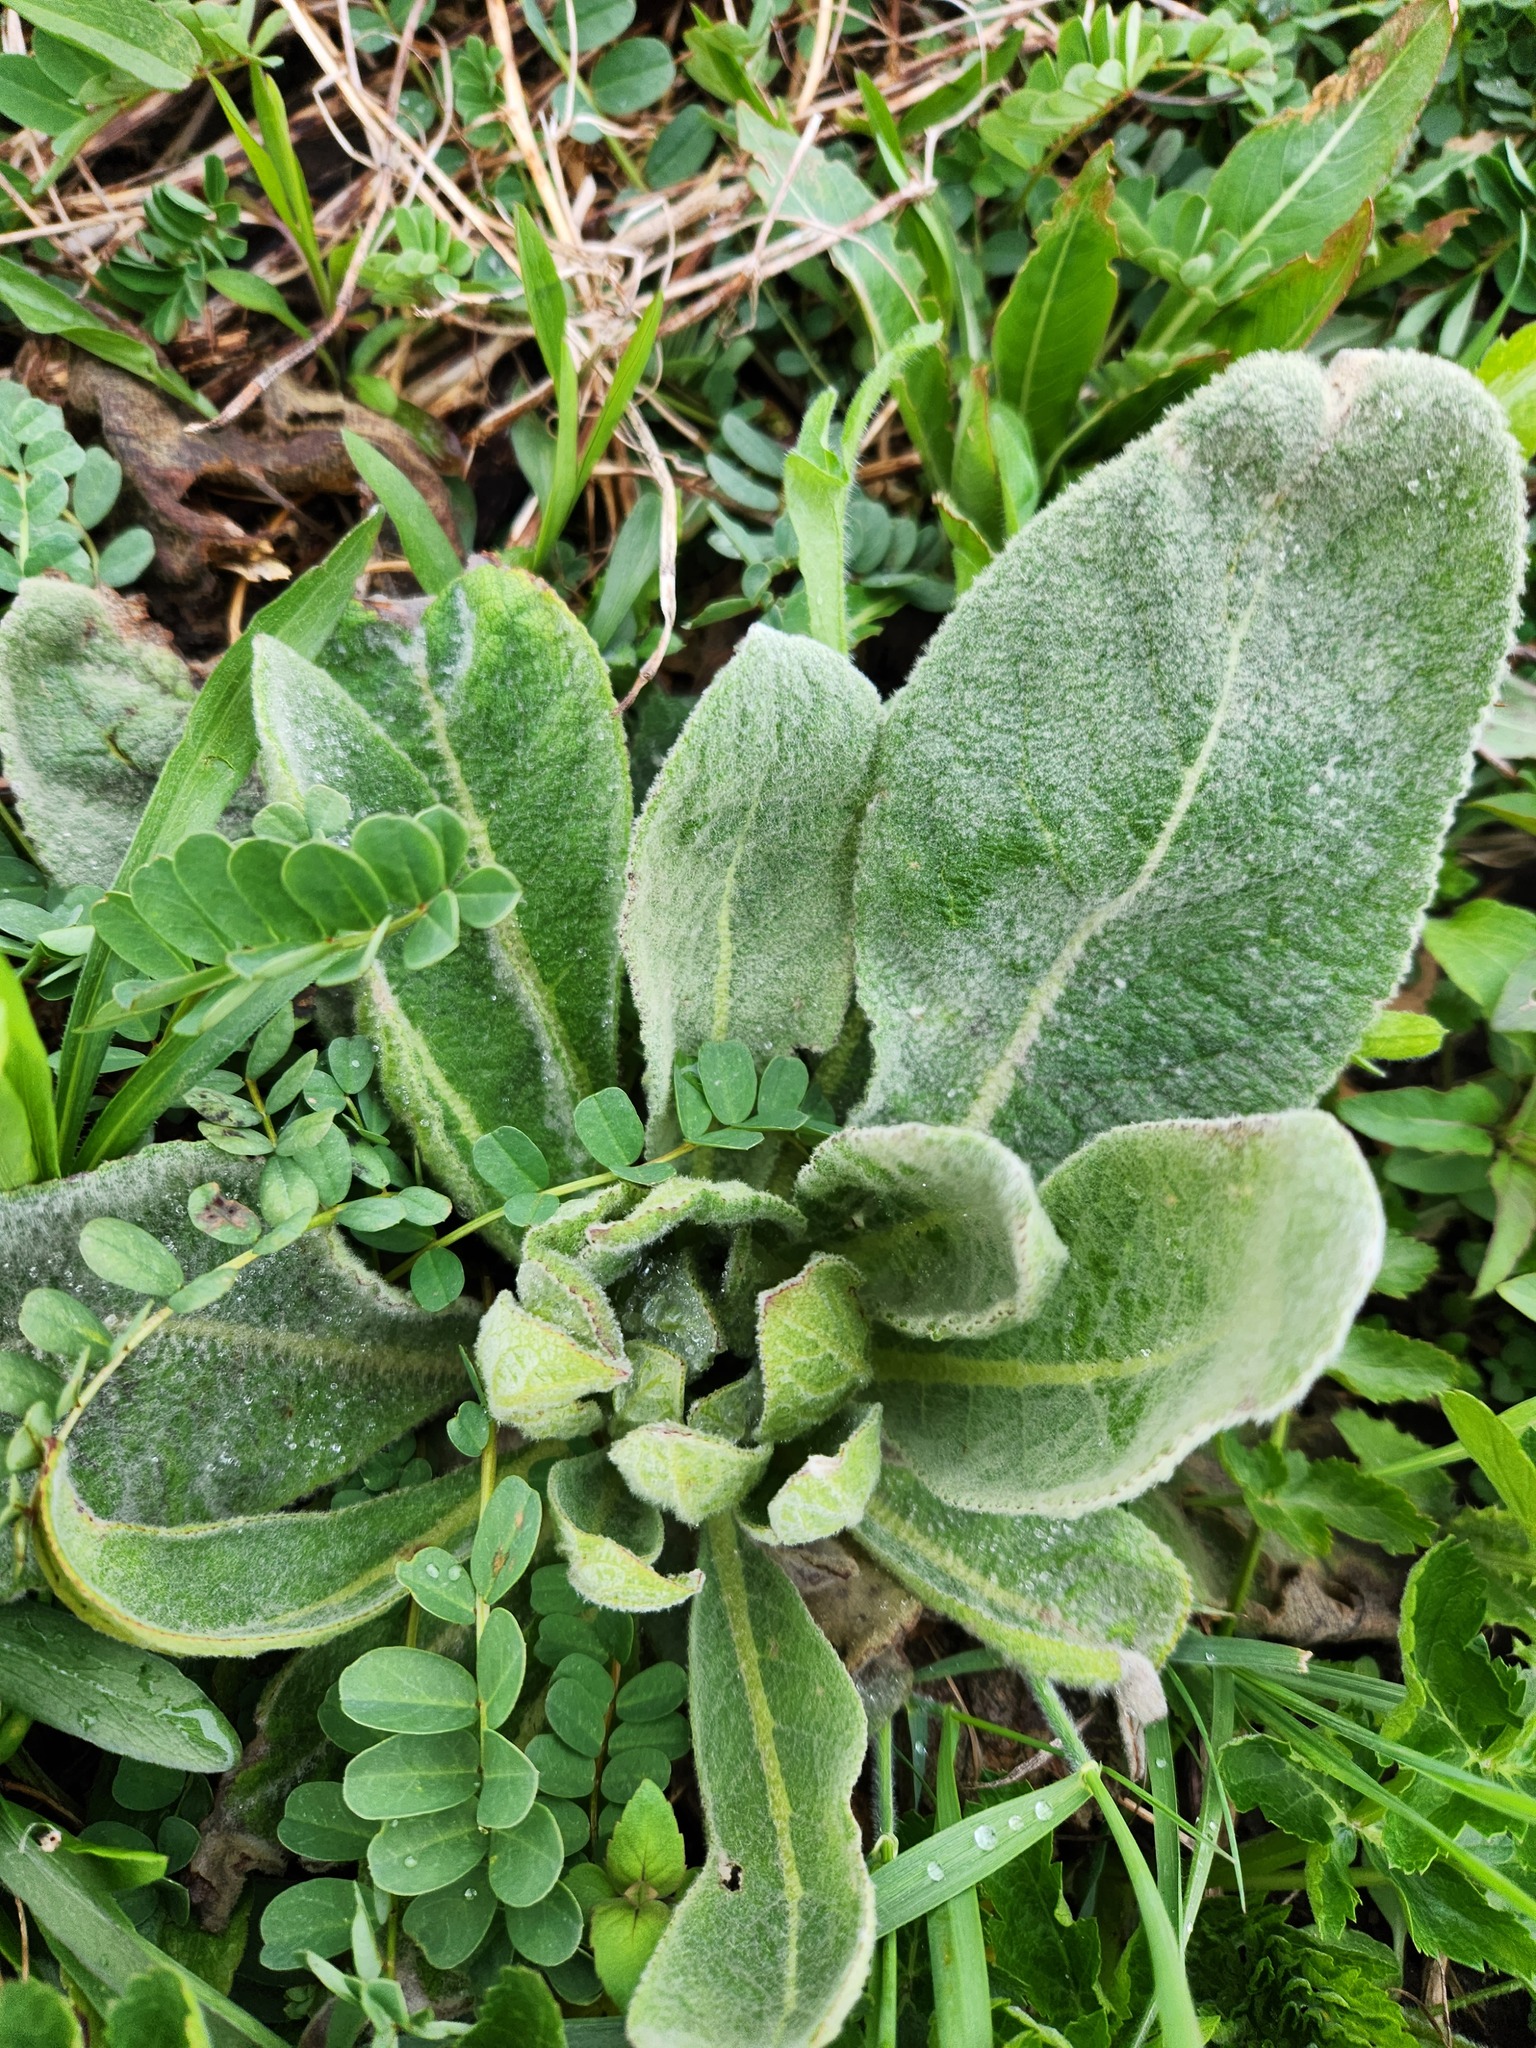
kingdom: Plantae
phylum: Tracheophyta
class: Magnoliopsida
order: Lamiales
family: Scrophulariaceae
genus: Verbascum
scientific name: Verbascum thapsus
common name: Common mullein
